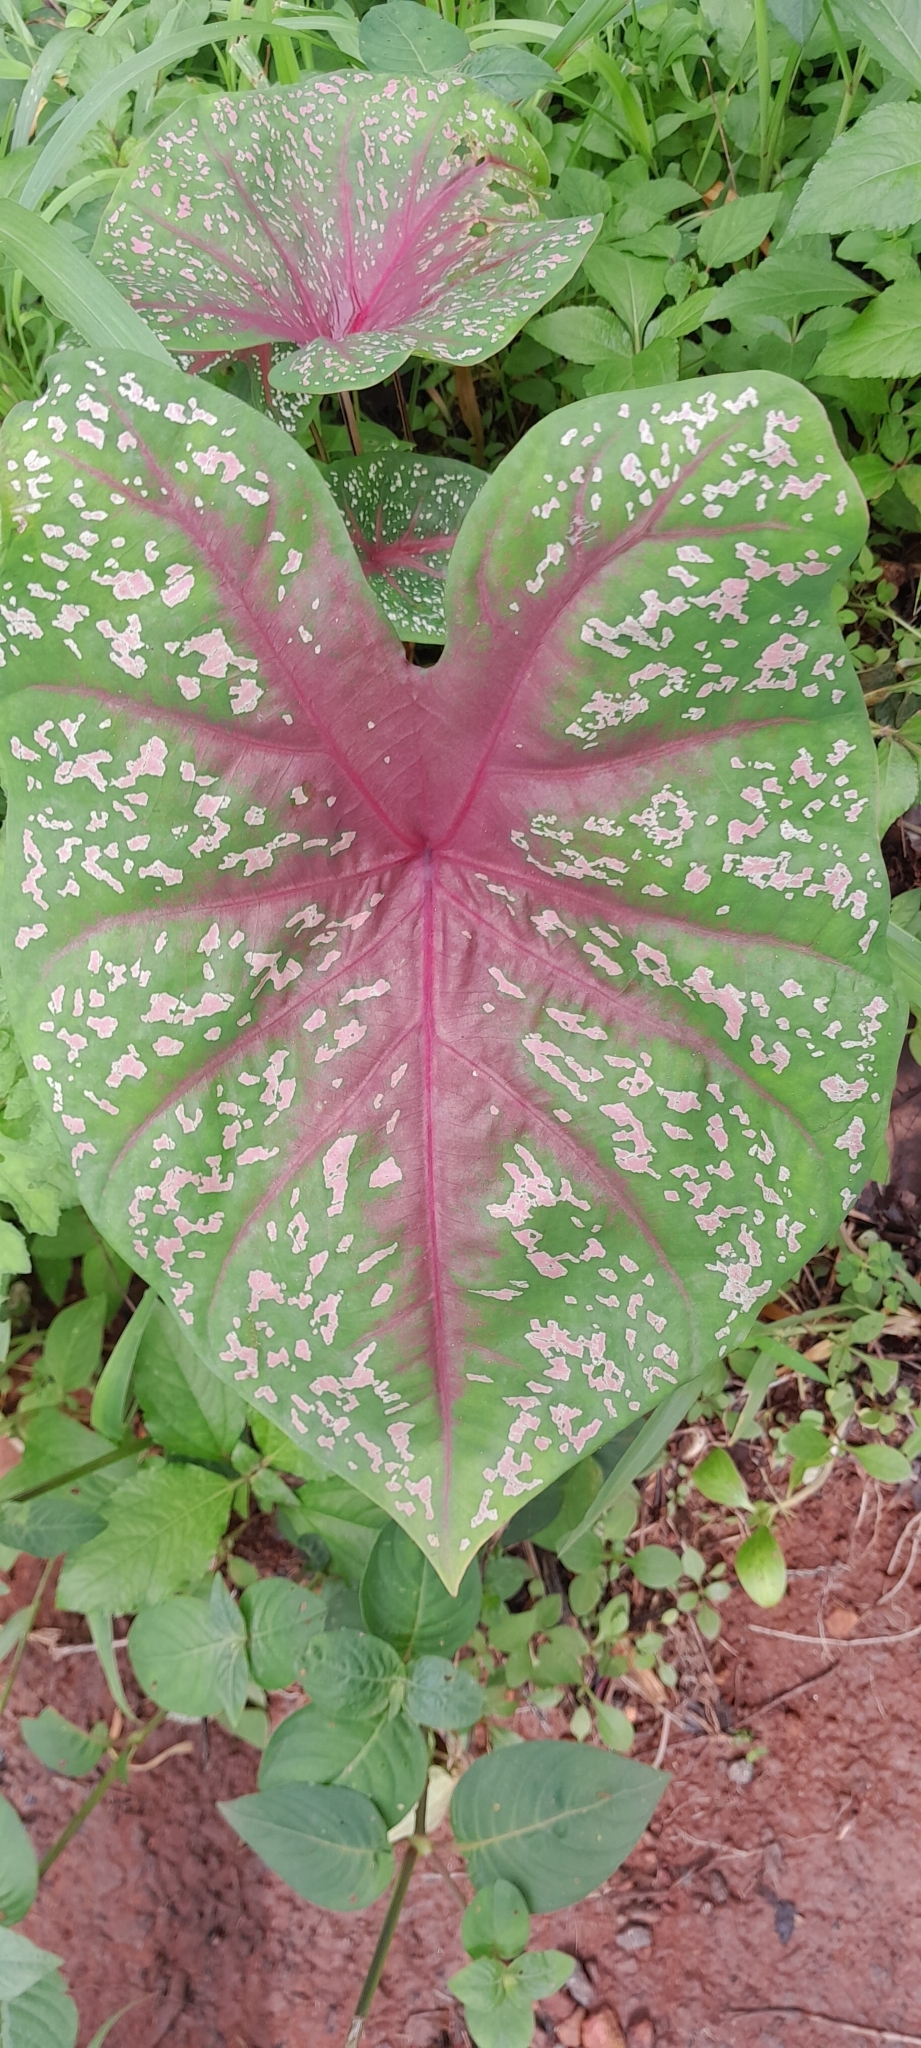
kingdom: Plantae
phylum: Tracheophyta
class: Liliopsida
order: Alismatales
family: Araceae
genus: Caladium
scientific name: Caladium bicolor
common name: Artist's pallet
